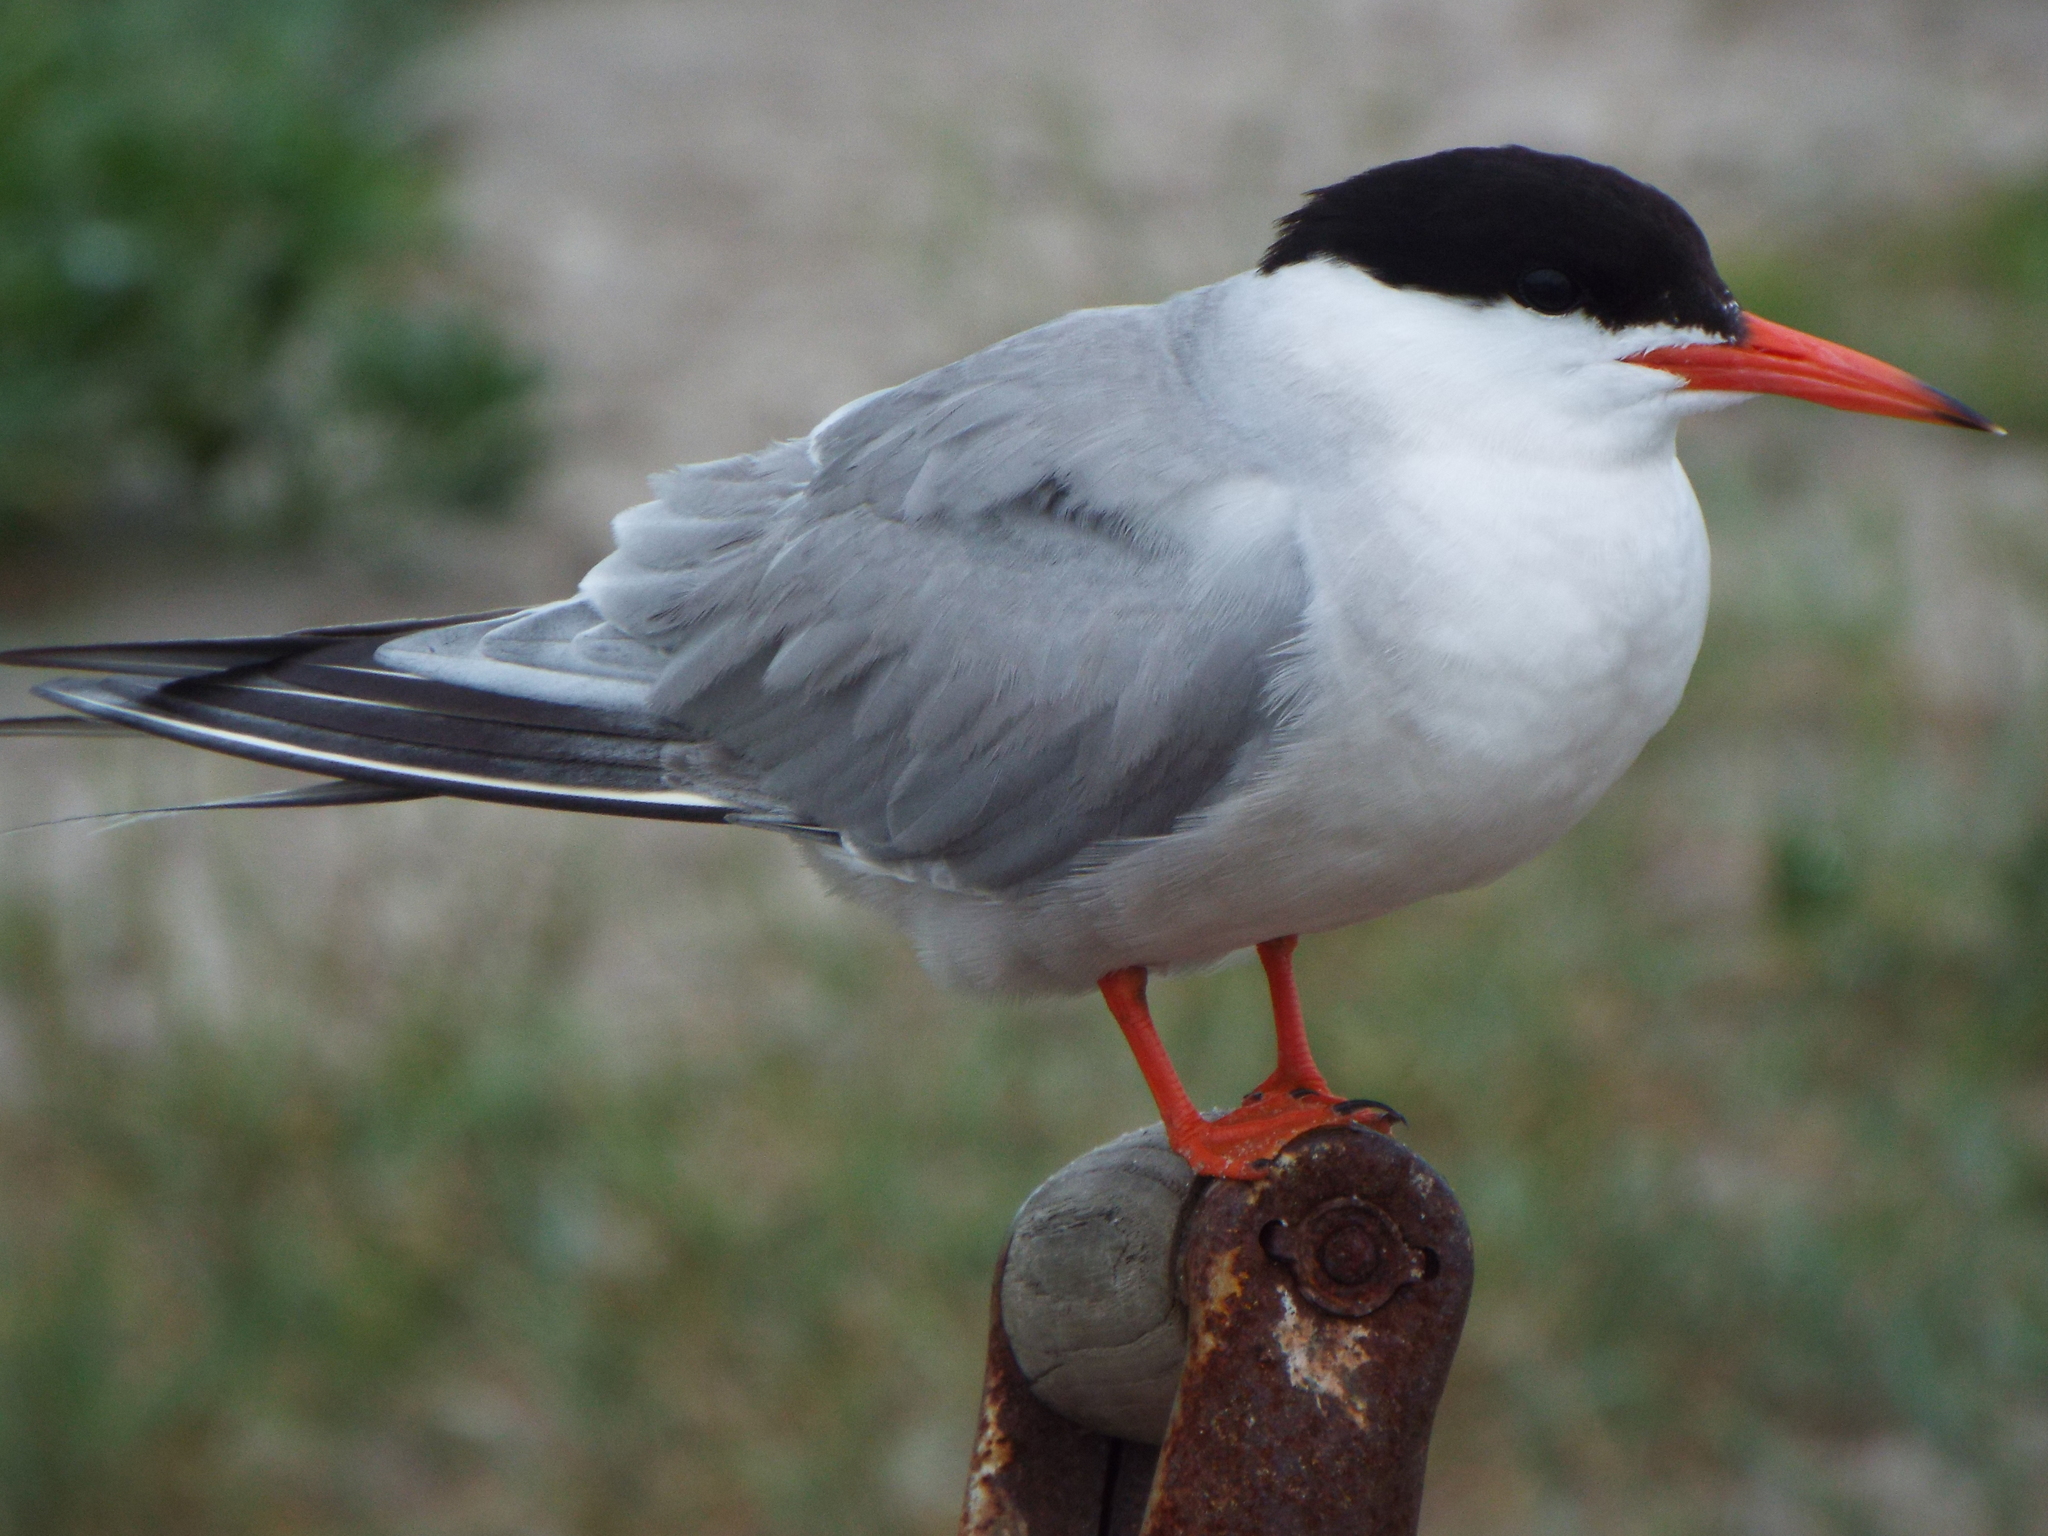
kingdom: Animalia
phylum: Chordata
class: Aves
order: Charadriiformes
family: Laridae
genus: Sterna
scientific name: Sterna hirundo
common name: Common tern
